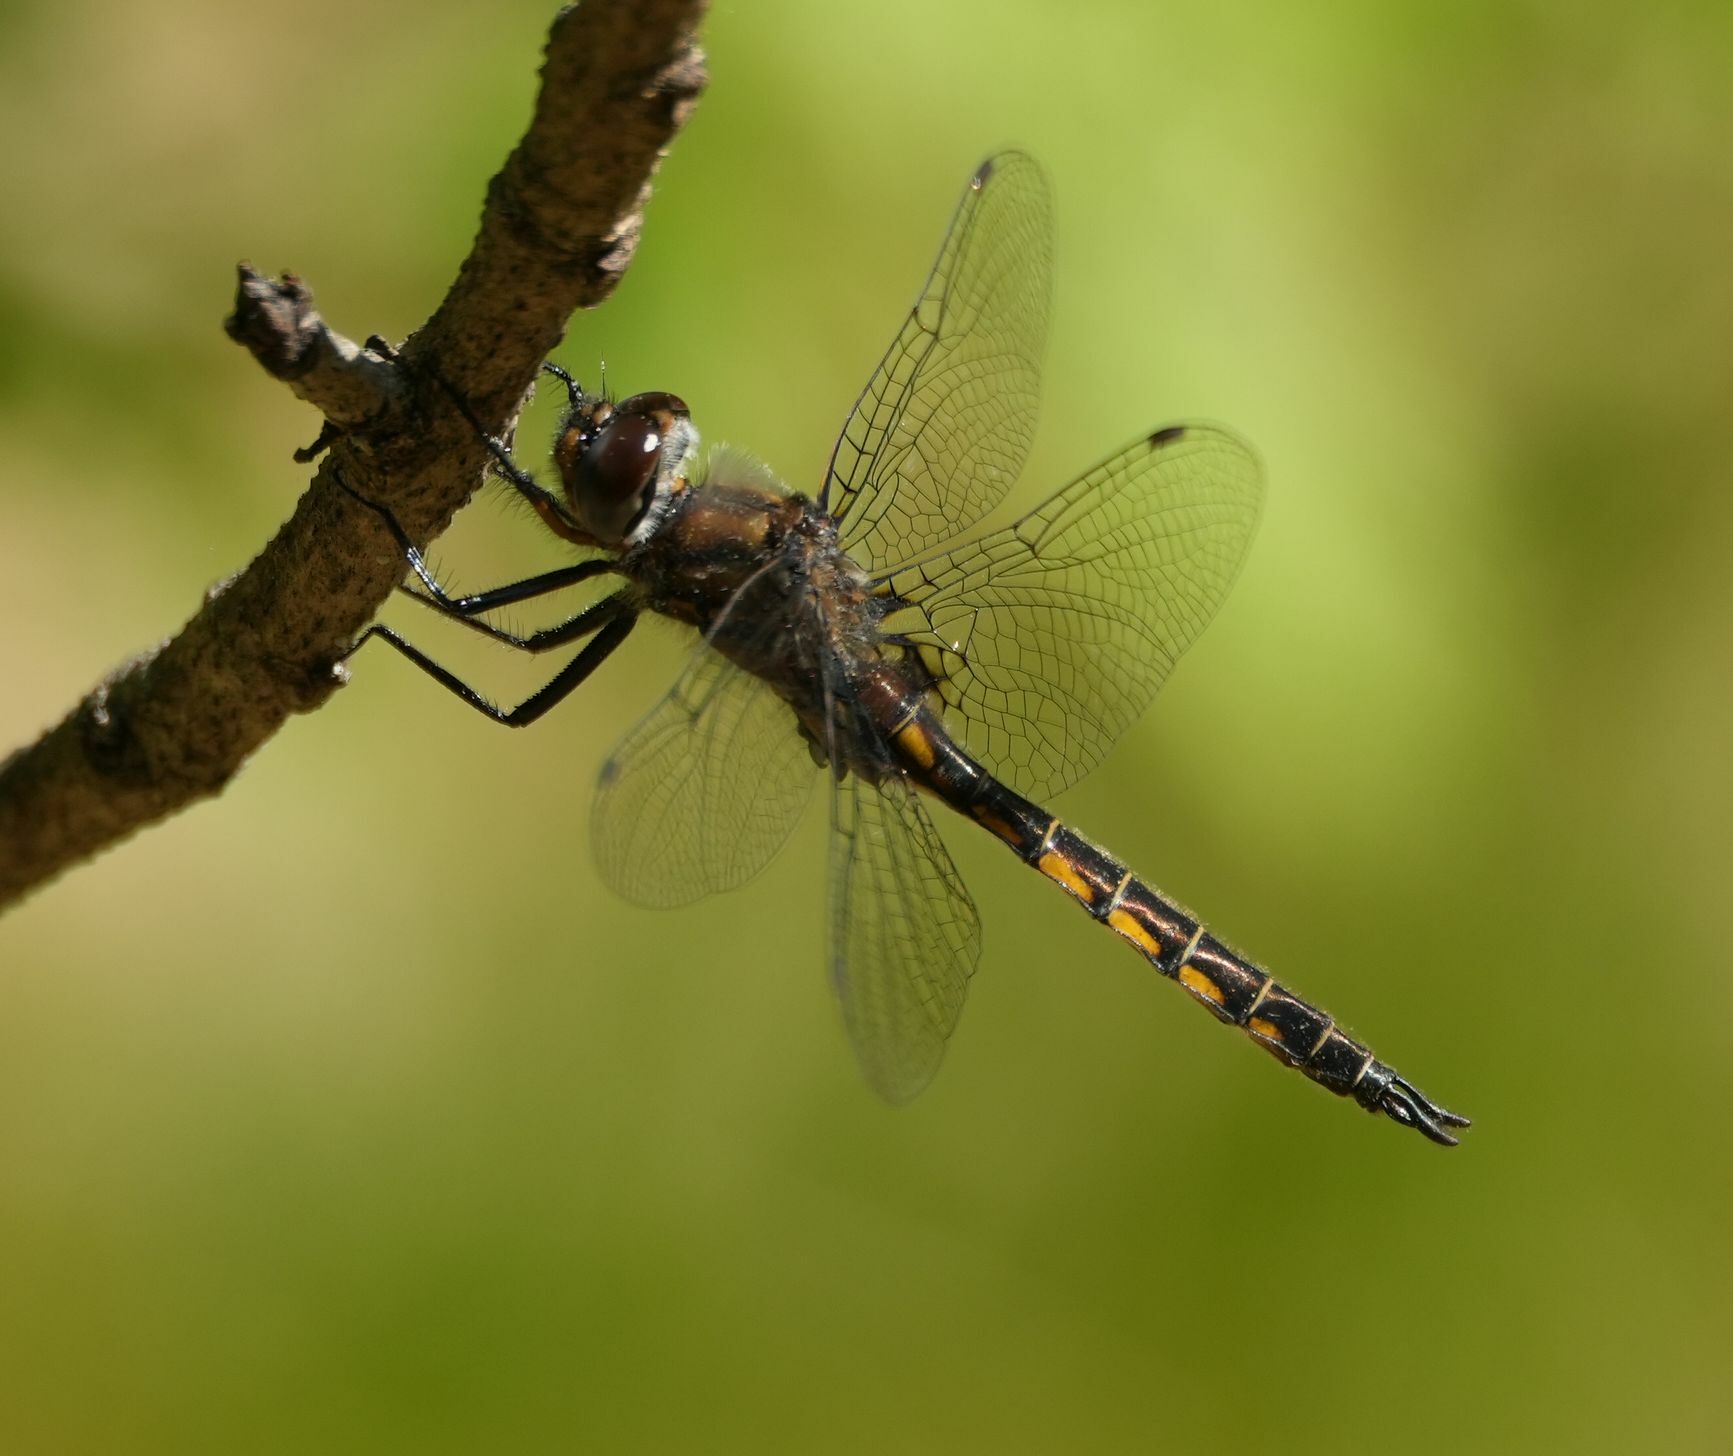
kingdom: Animalia
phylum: Arthropoda
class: Insecta
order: Odonata
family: Corduliidae
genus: Epitheca
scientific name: Epitheca spinigera
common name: Spiny baskettail
